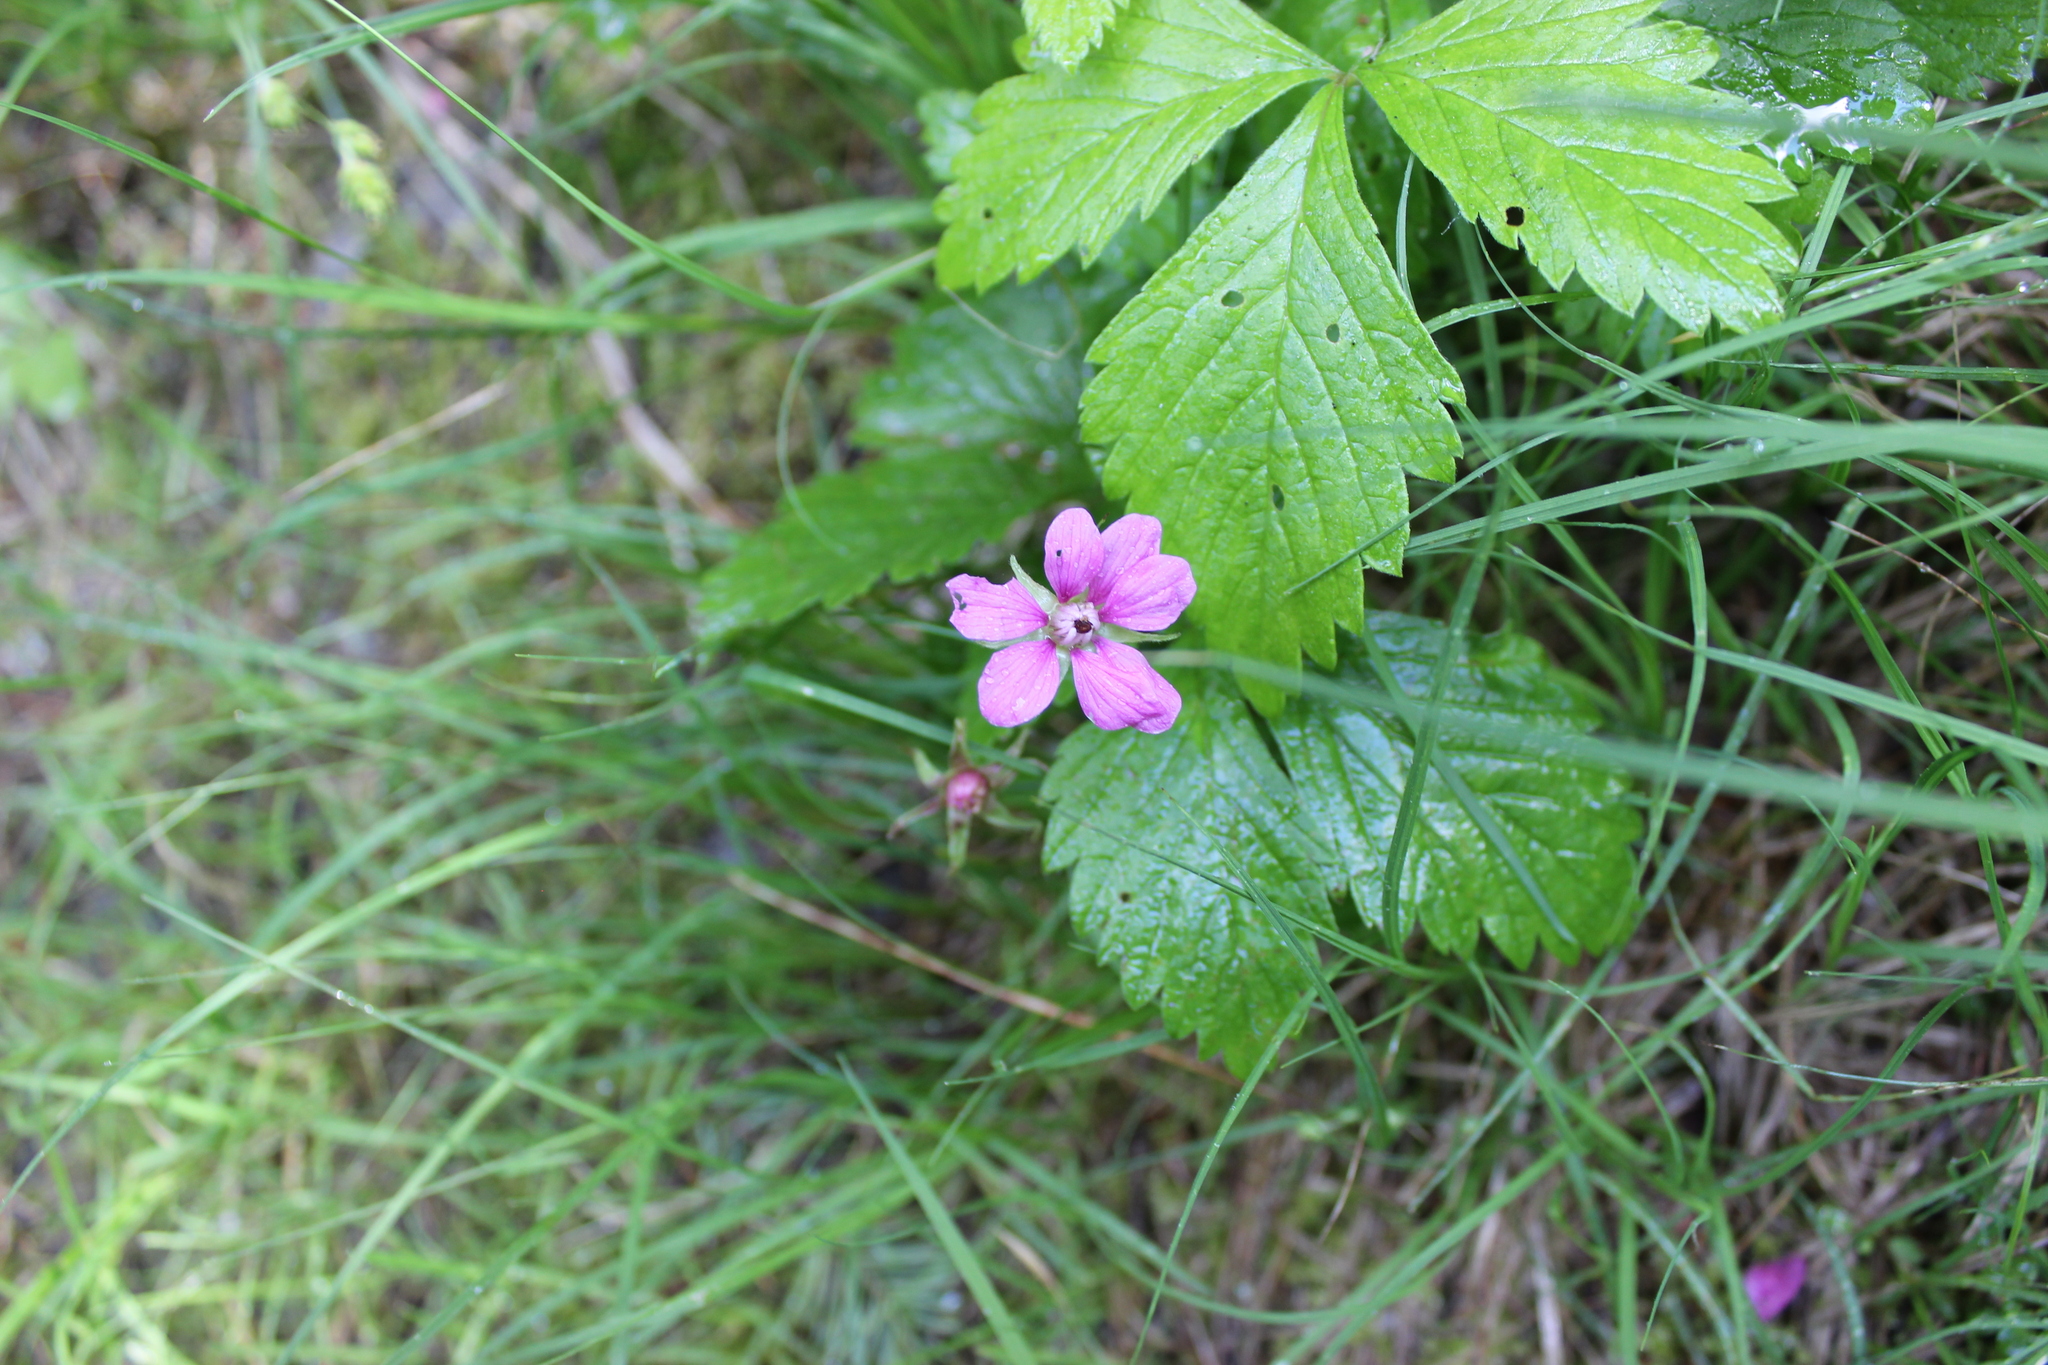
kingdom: Plantae
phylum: Tracheophyta
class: Magnoliopsida
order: Rosales
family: Rosaceae
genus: Rubus
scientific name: Rubus arcticus
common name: Arctic bramble
